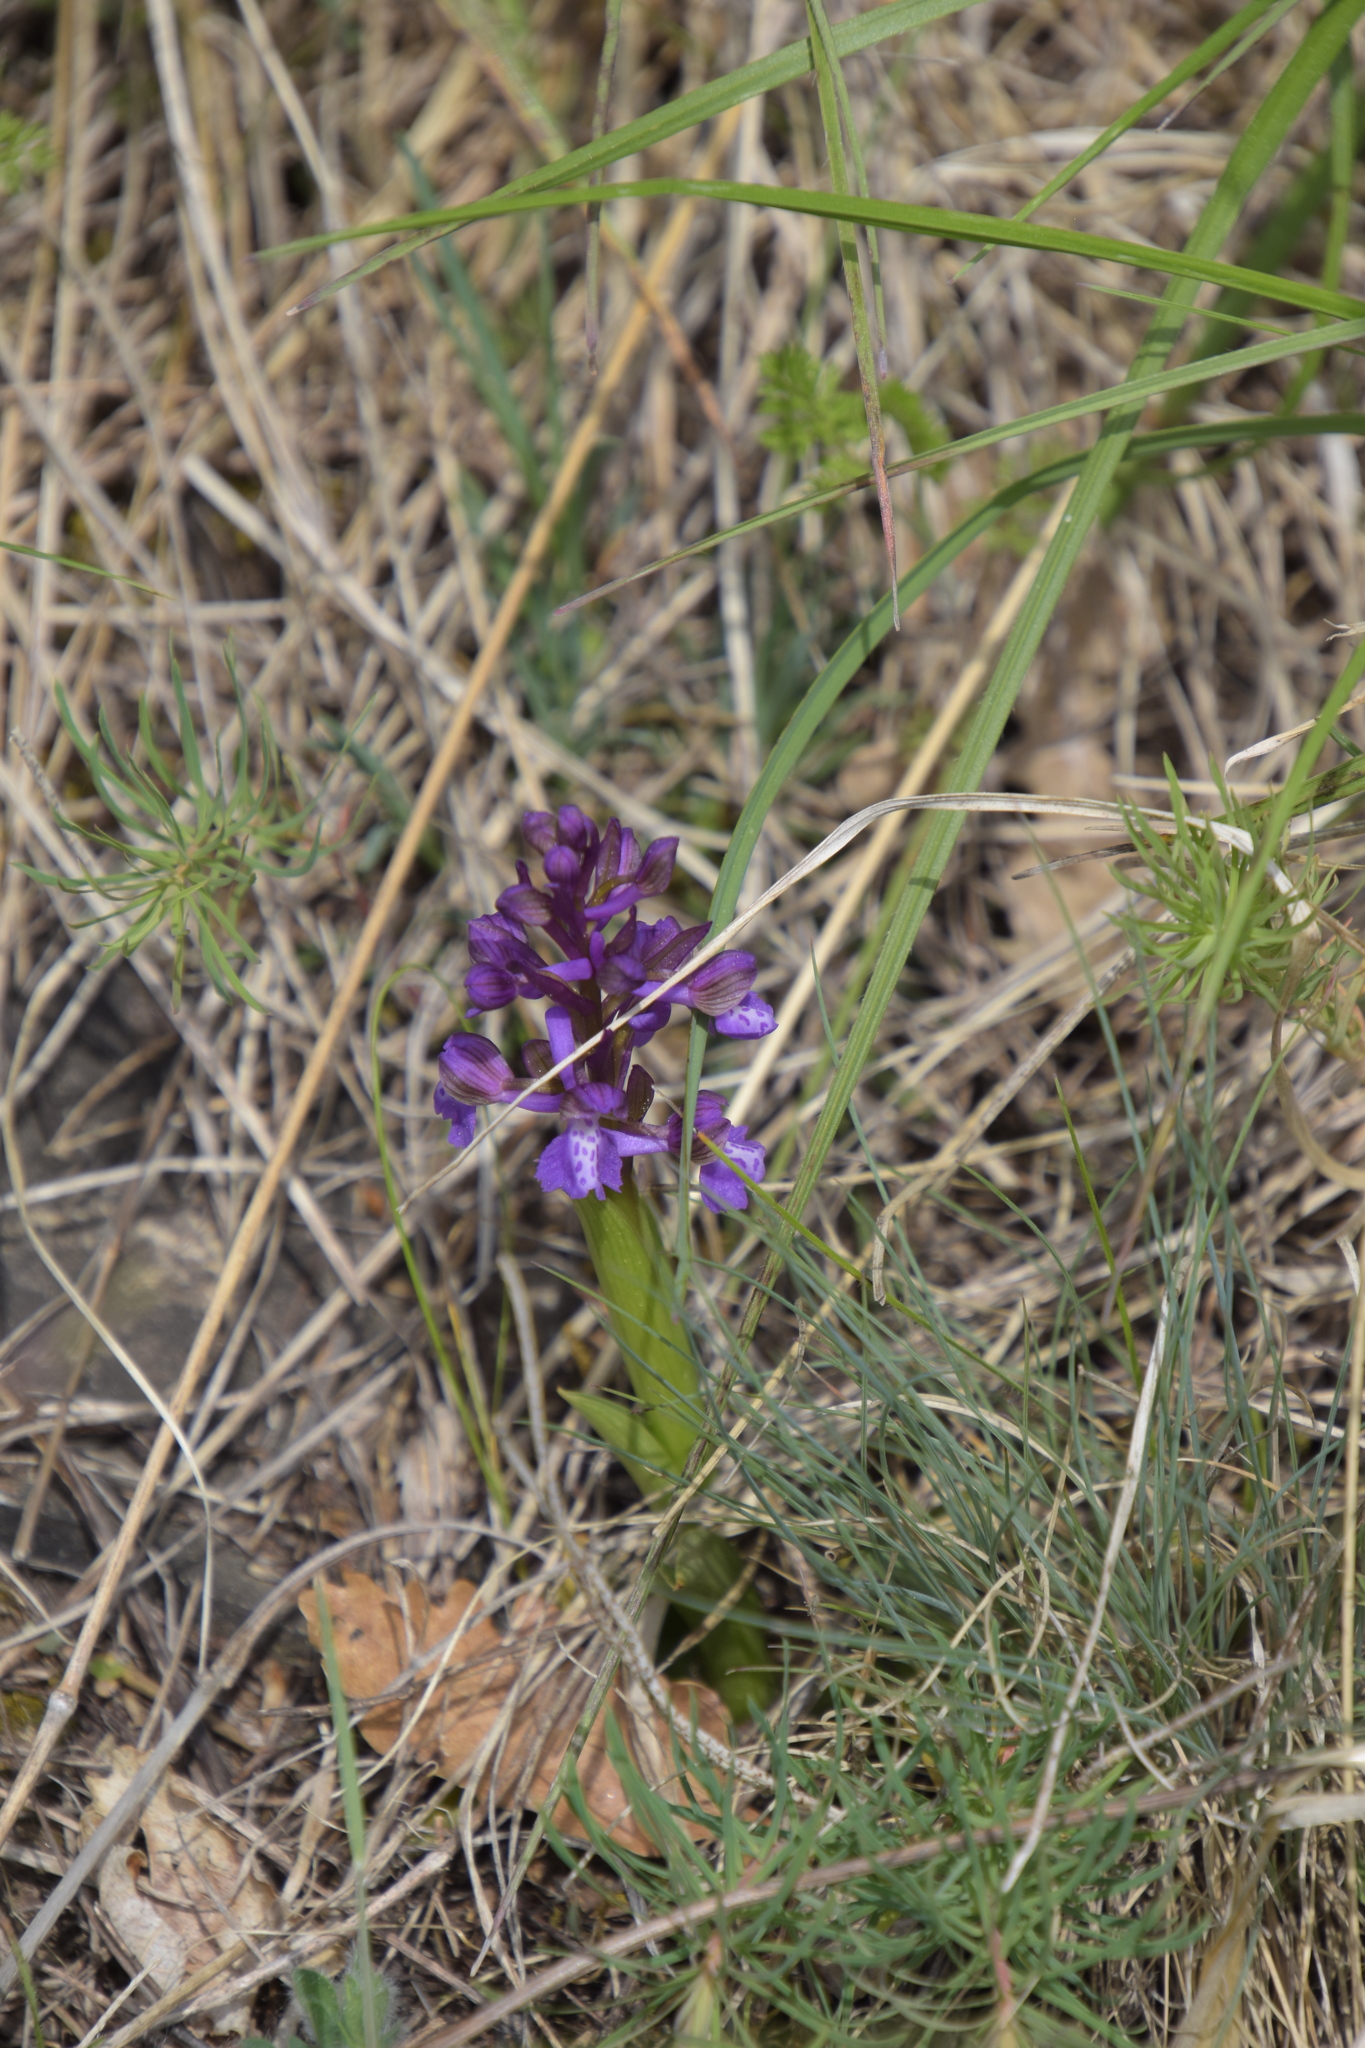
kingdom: Plantae
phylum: Tracheophyta
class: Liliopsida
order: Asparagales
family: Orchidaceae
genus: Anacamptis
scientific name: Anacamptis morio
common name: Green-winged orchid
